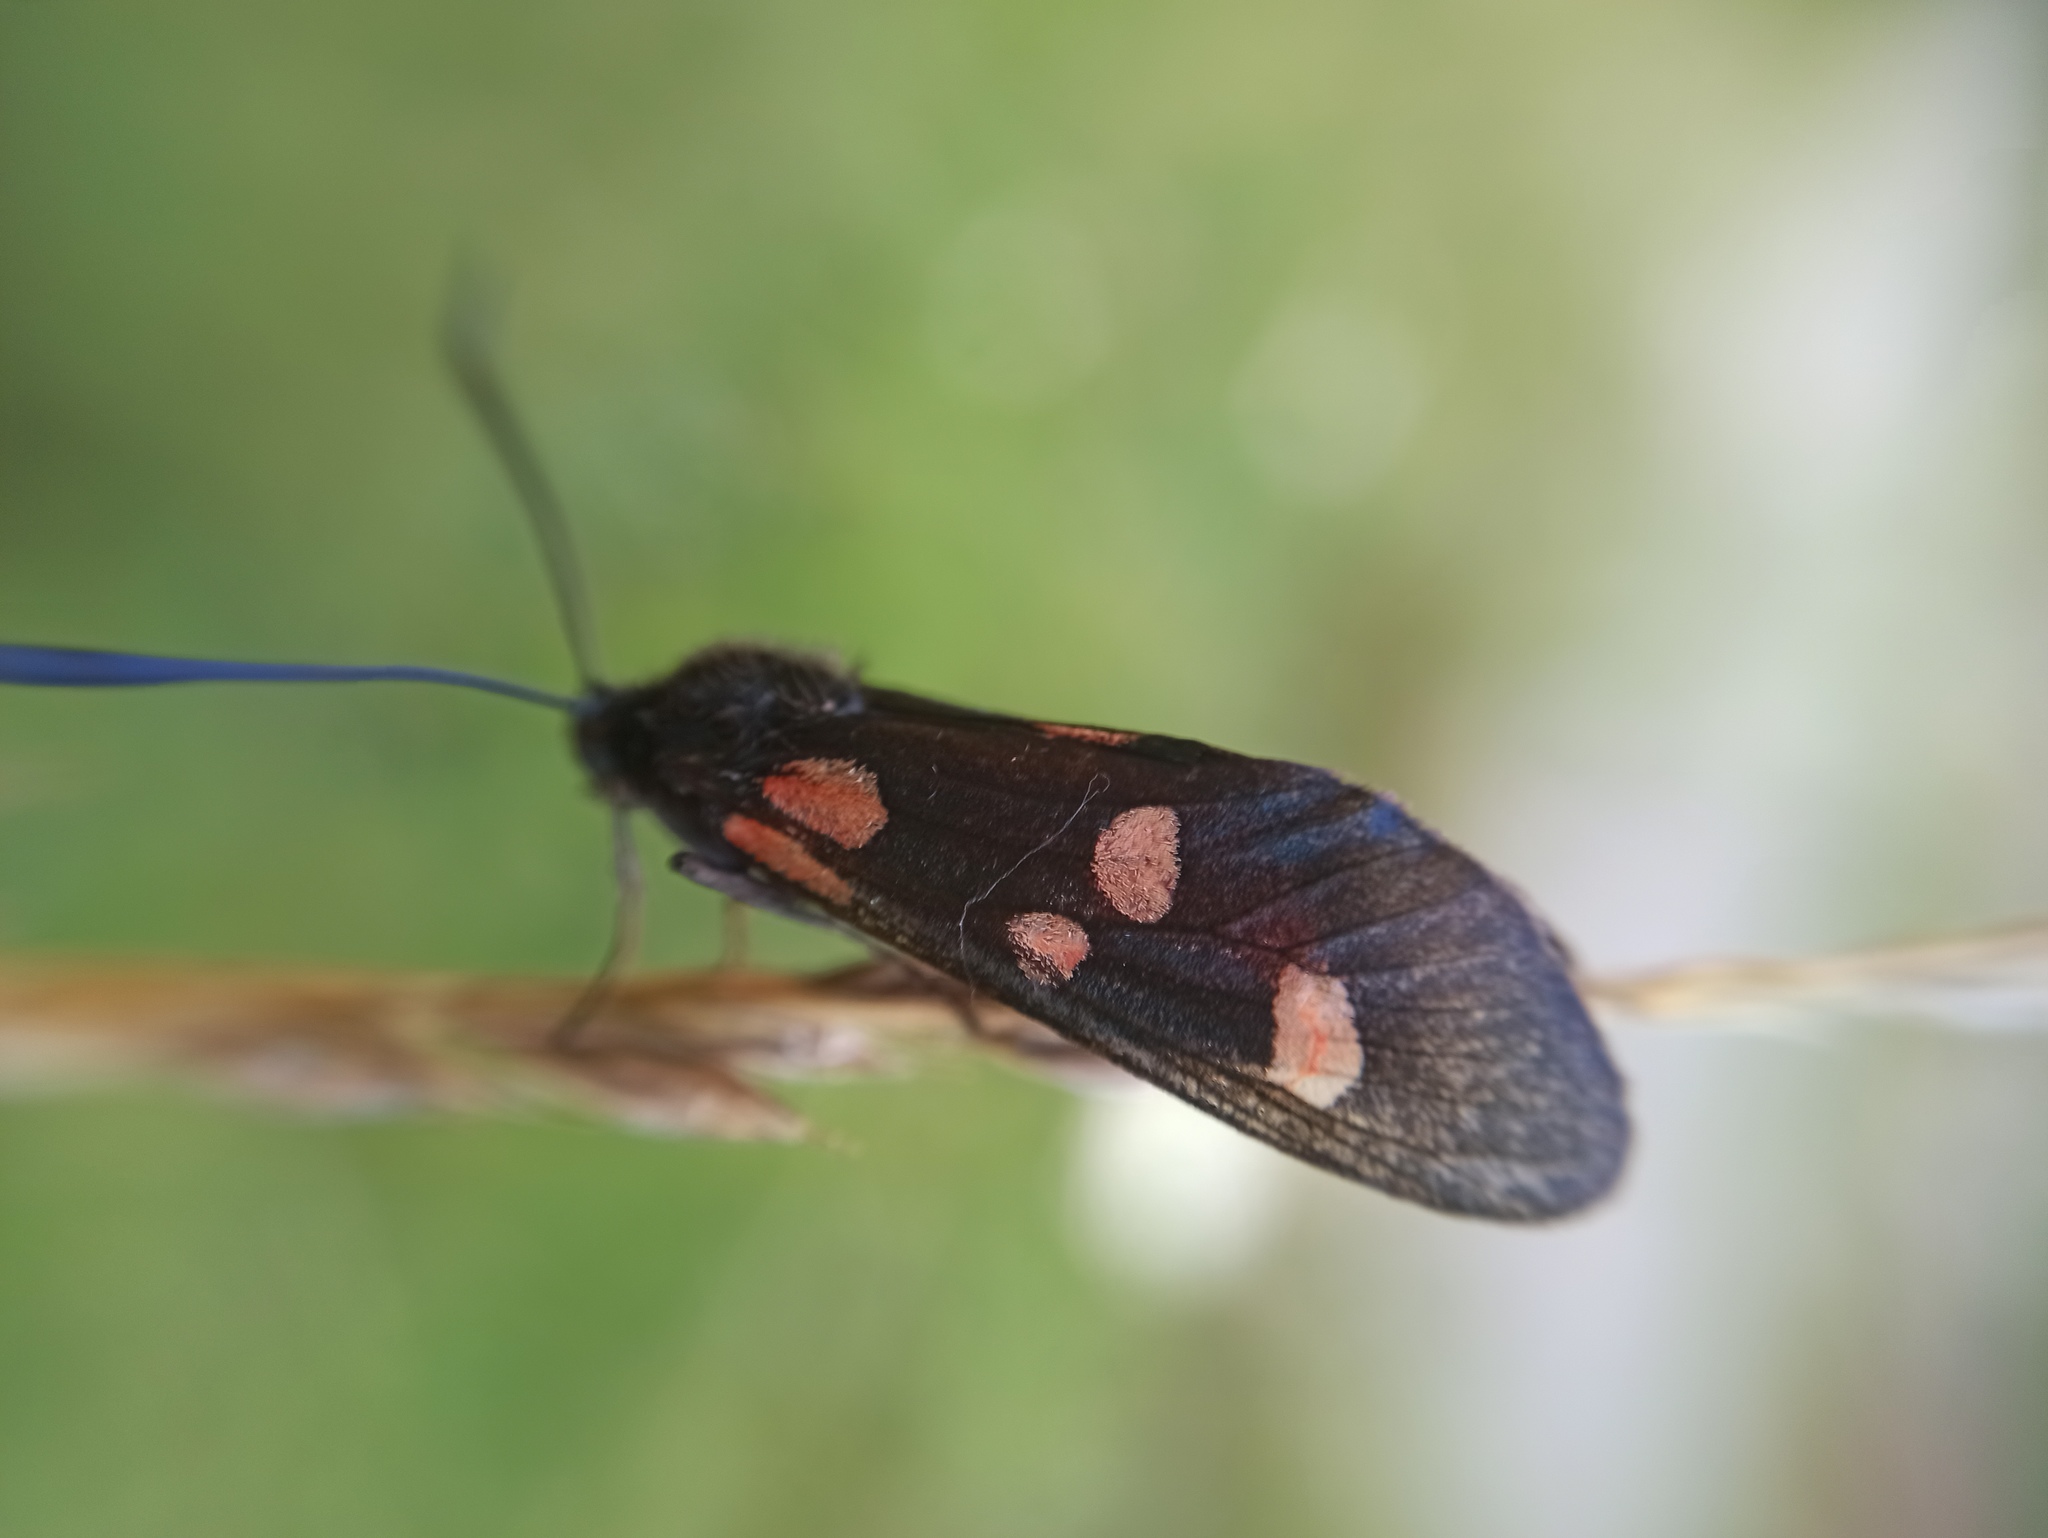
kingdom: Animalia
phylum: Arthropoda
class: Insecta
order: Lepidoptera
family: Zygaenidae
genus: Zygaena
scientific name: Zygaena lonicerae
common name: Narrow-bordered five-spot burnet
